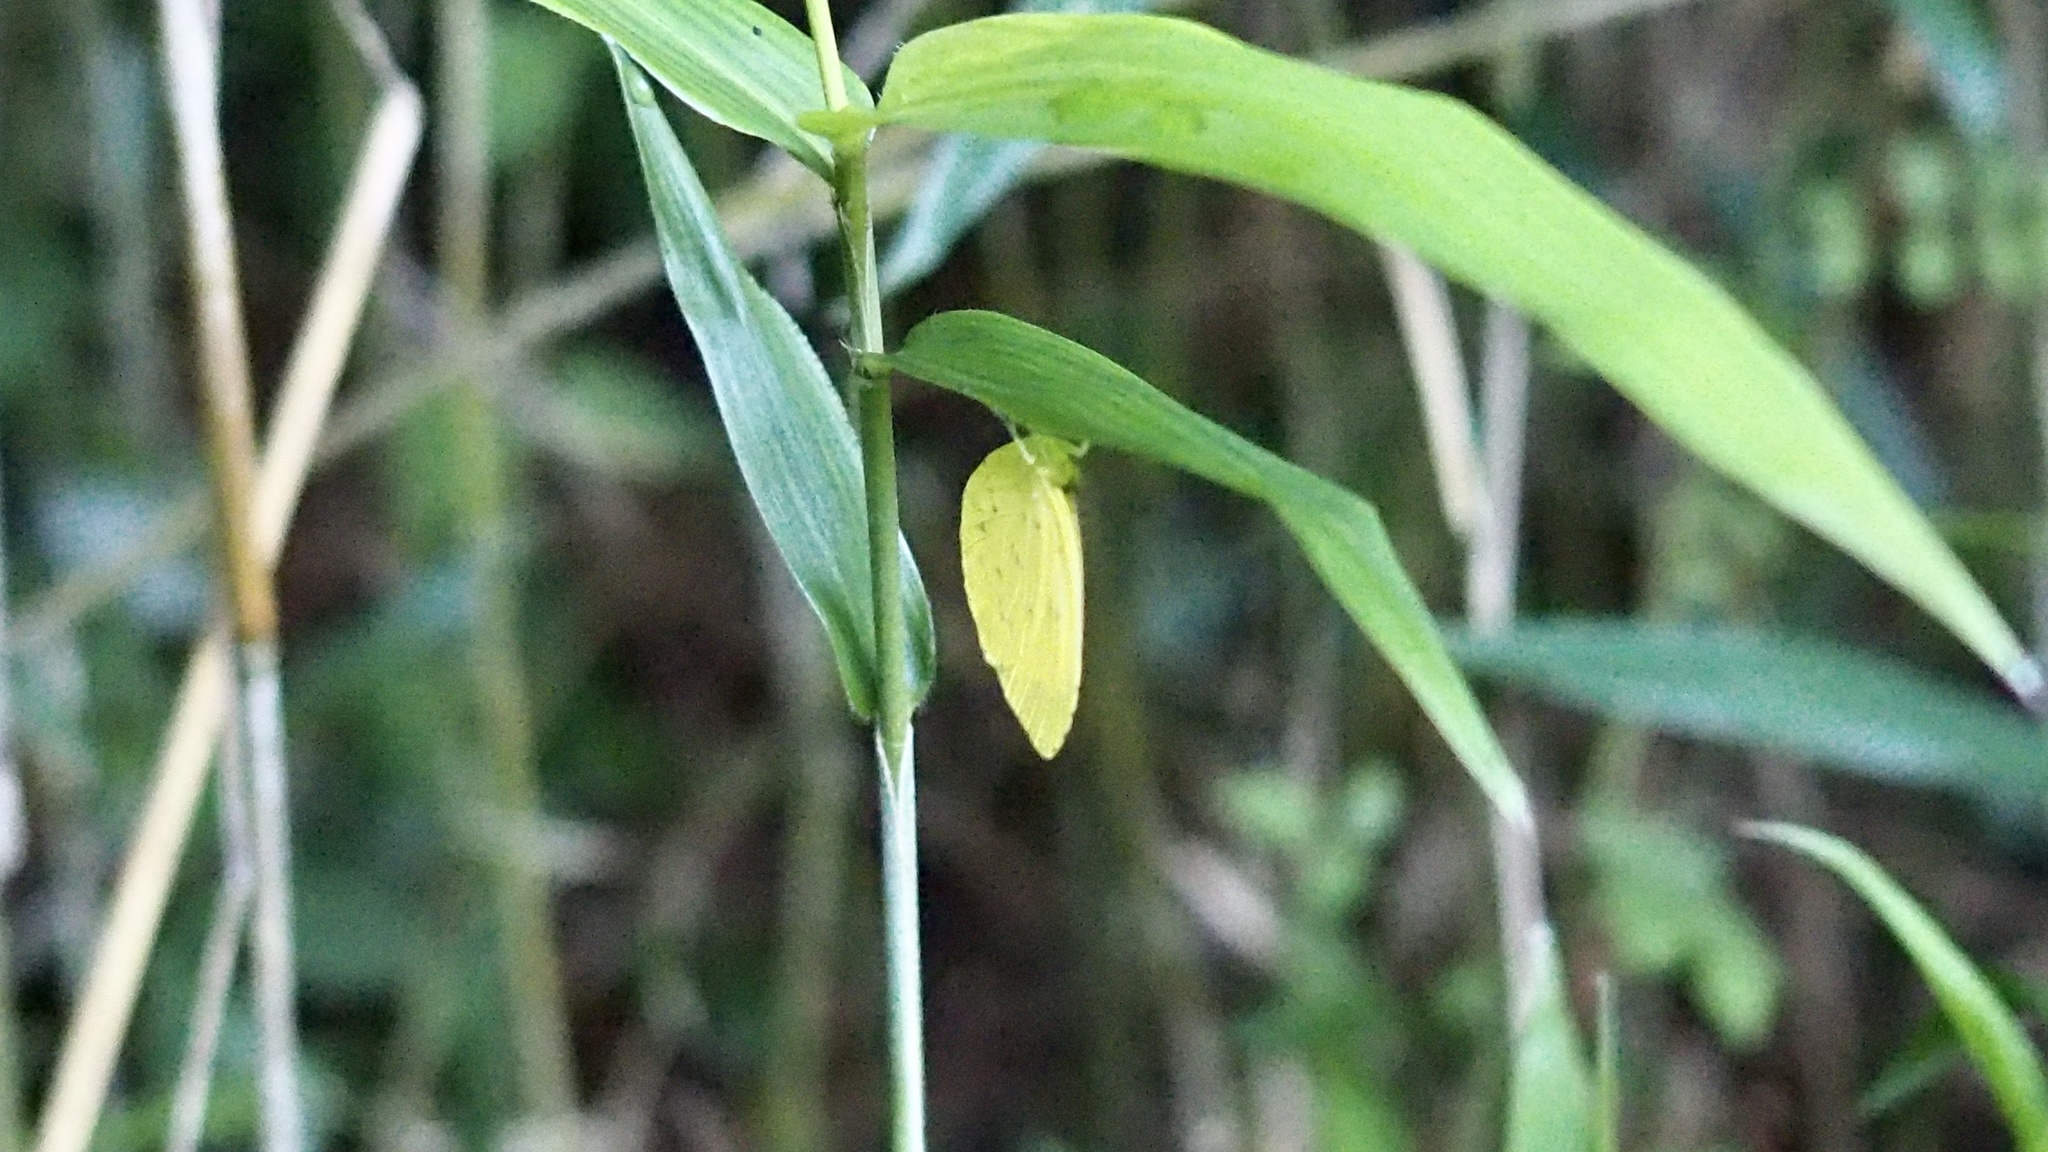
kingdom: Animalia
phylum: Arthropoda
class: Insecta
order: Lepidoptera
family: Pieridae
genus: Eurema
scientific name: Eurema mandarina
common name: Japanese common grass yellow
